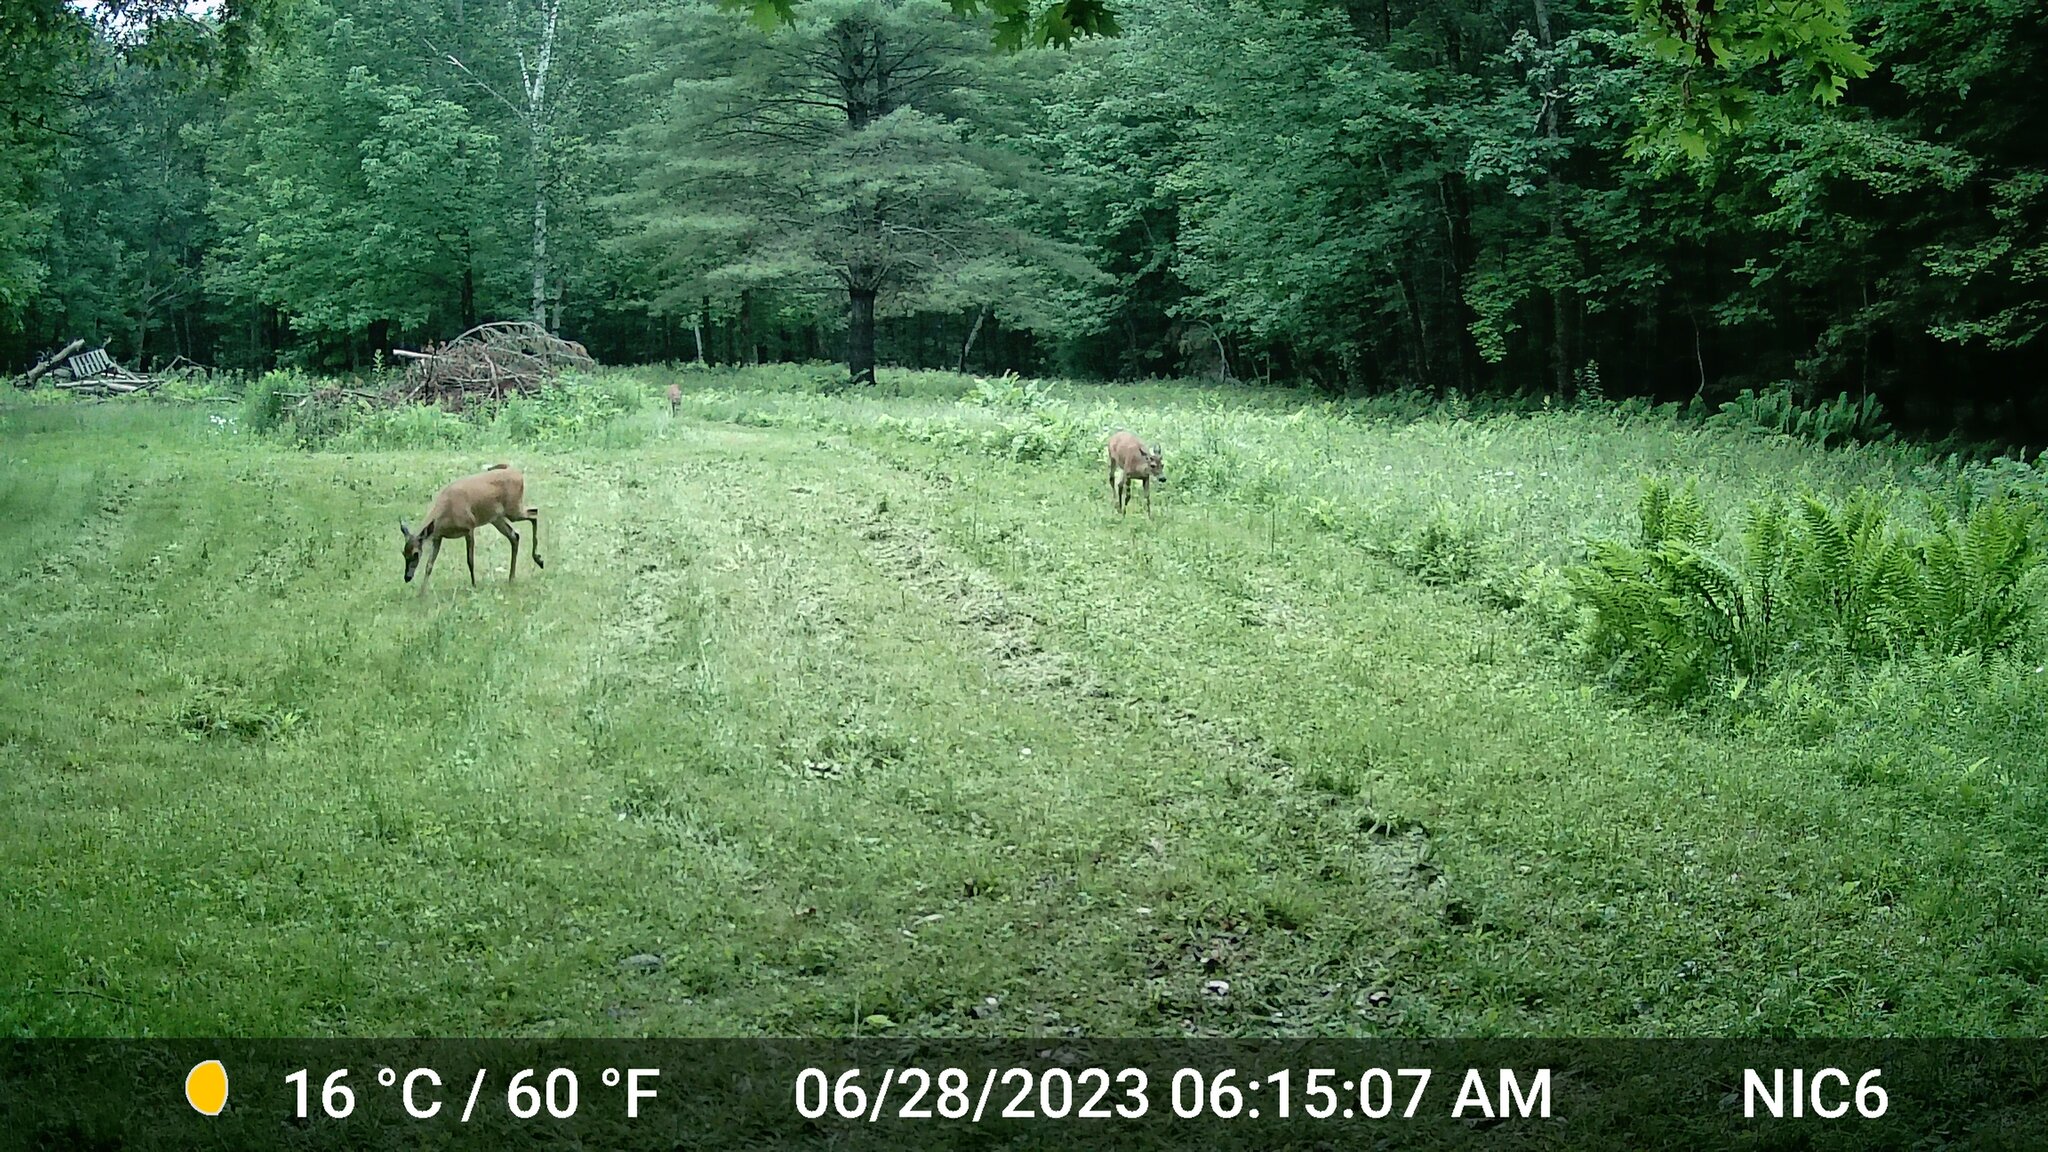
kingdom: Animalia
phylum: Chordata
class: Mammalia
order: Artiodactyla
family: Cervidae
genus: Odocoileus
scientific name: Odocoileus virginianus
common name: White-tailed deer
